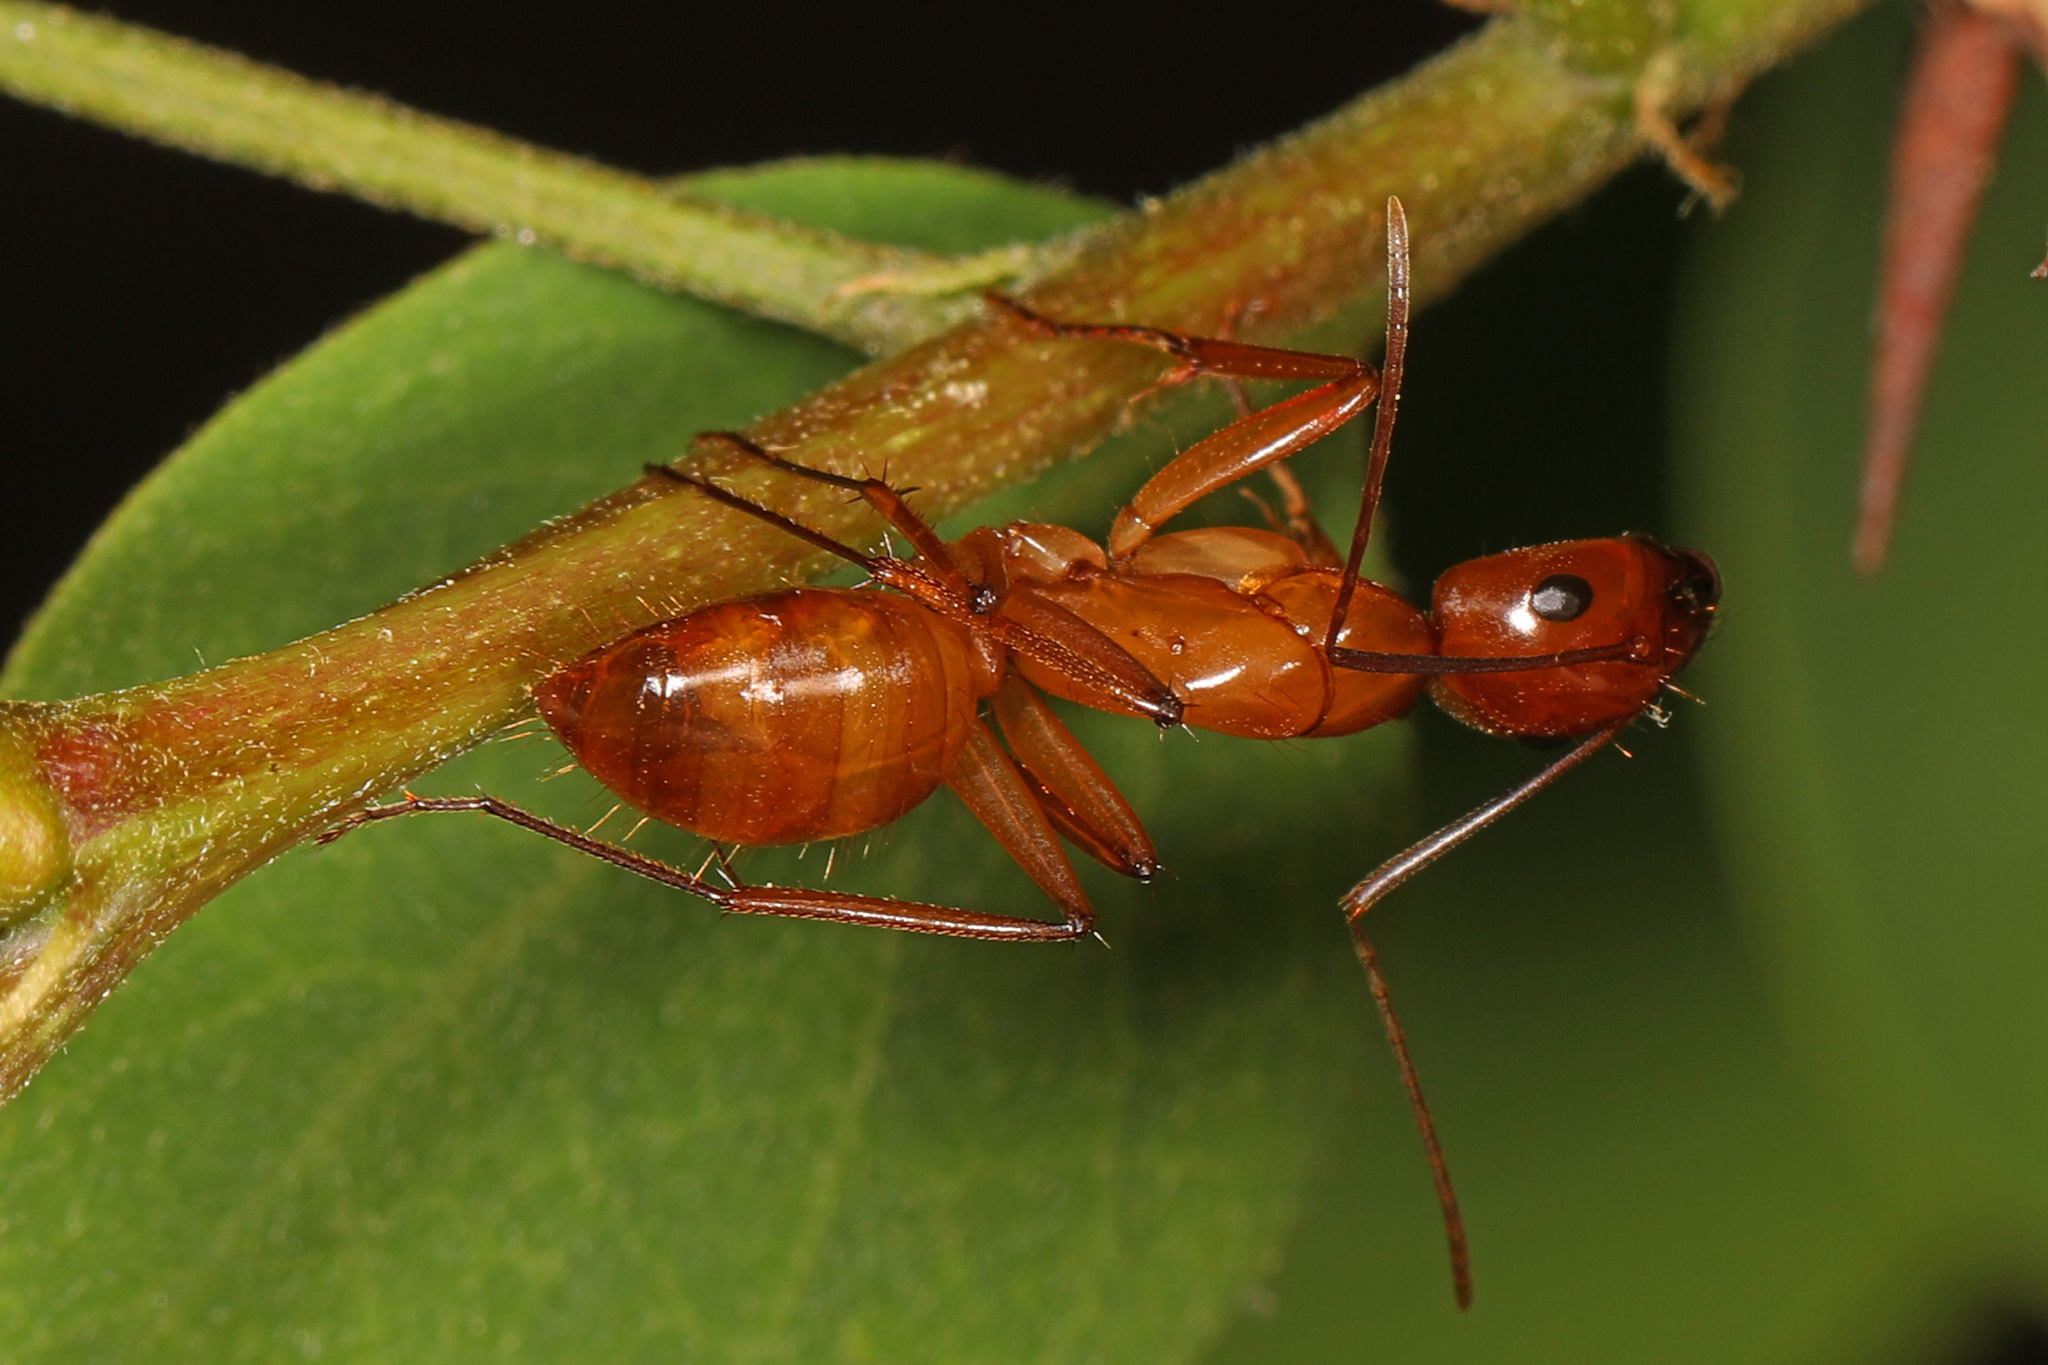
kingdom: Animalia
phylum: Arthropoda
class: Insecta
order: Hymenoptera
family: Formicidae
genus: Camponotus
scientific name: Camponotus castaneus
